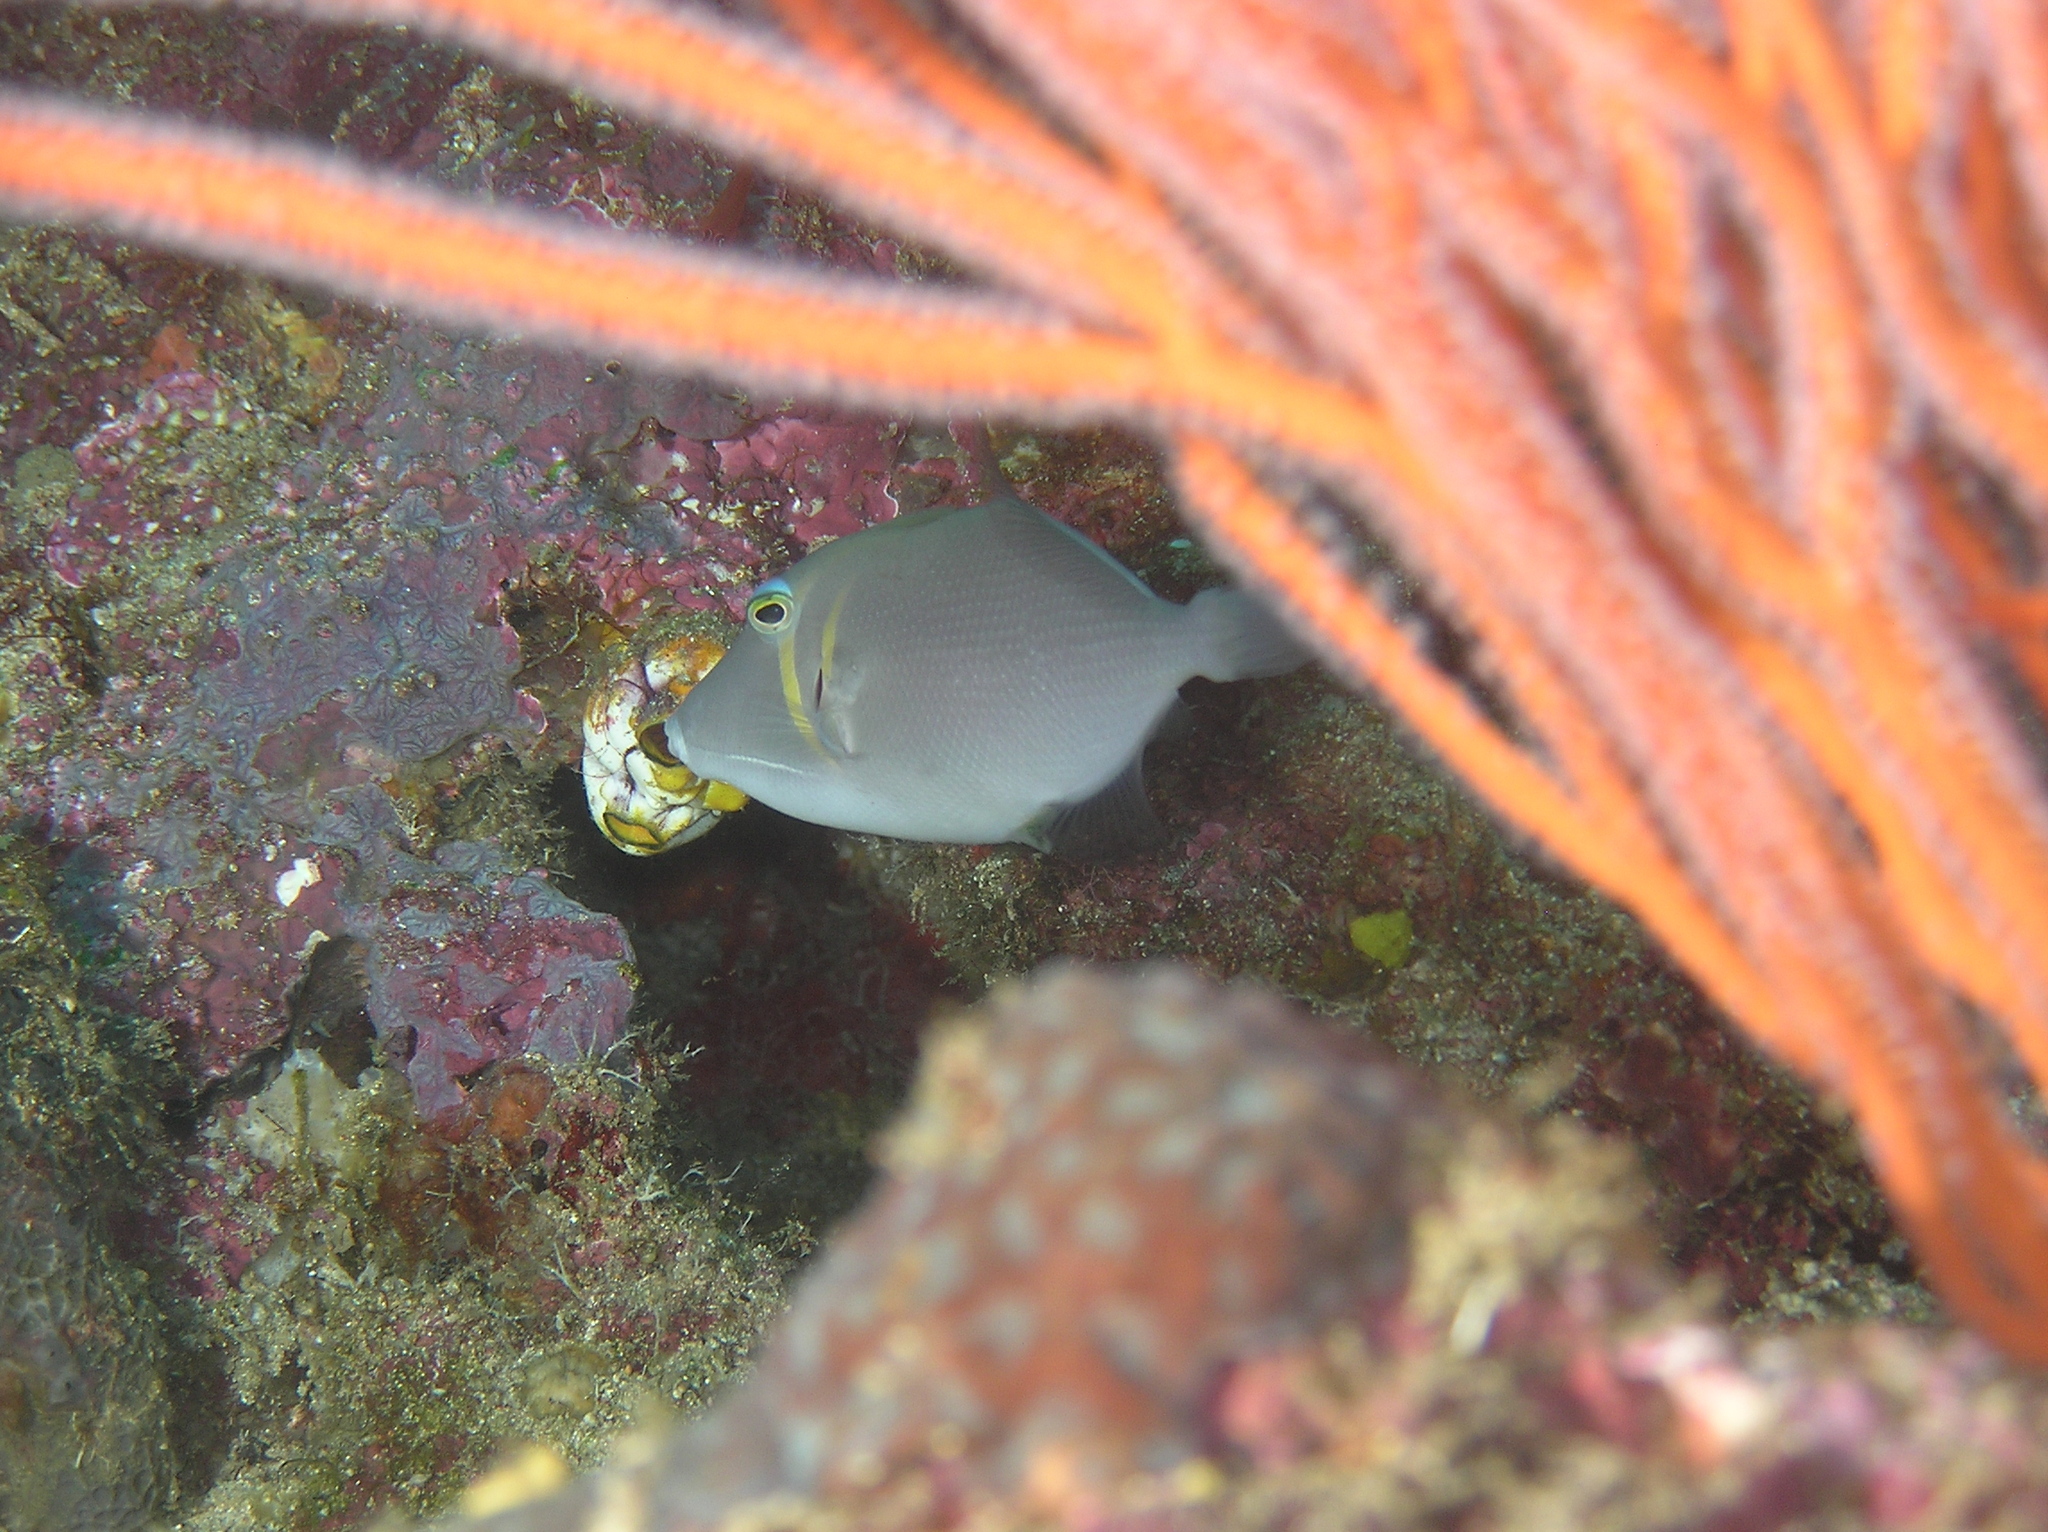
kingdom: Animalia
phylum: Chordata
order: Tetraodontiformes
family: Balistidae
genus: Sufflamen
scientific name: Sufflamen bursa
